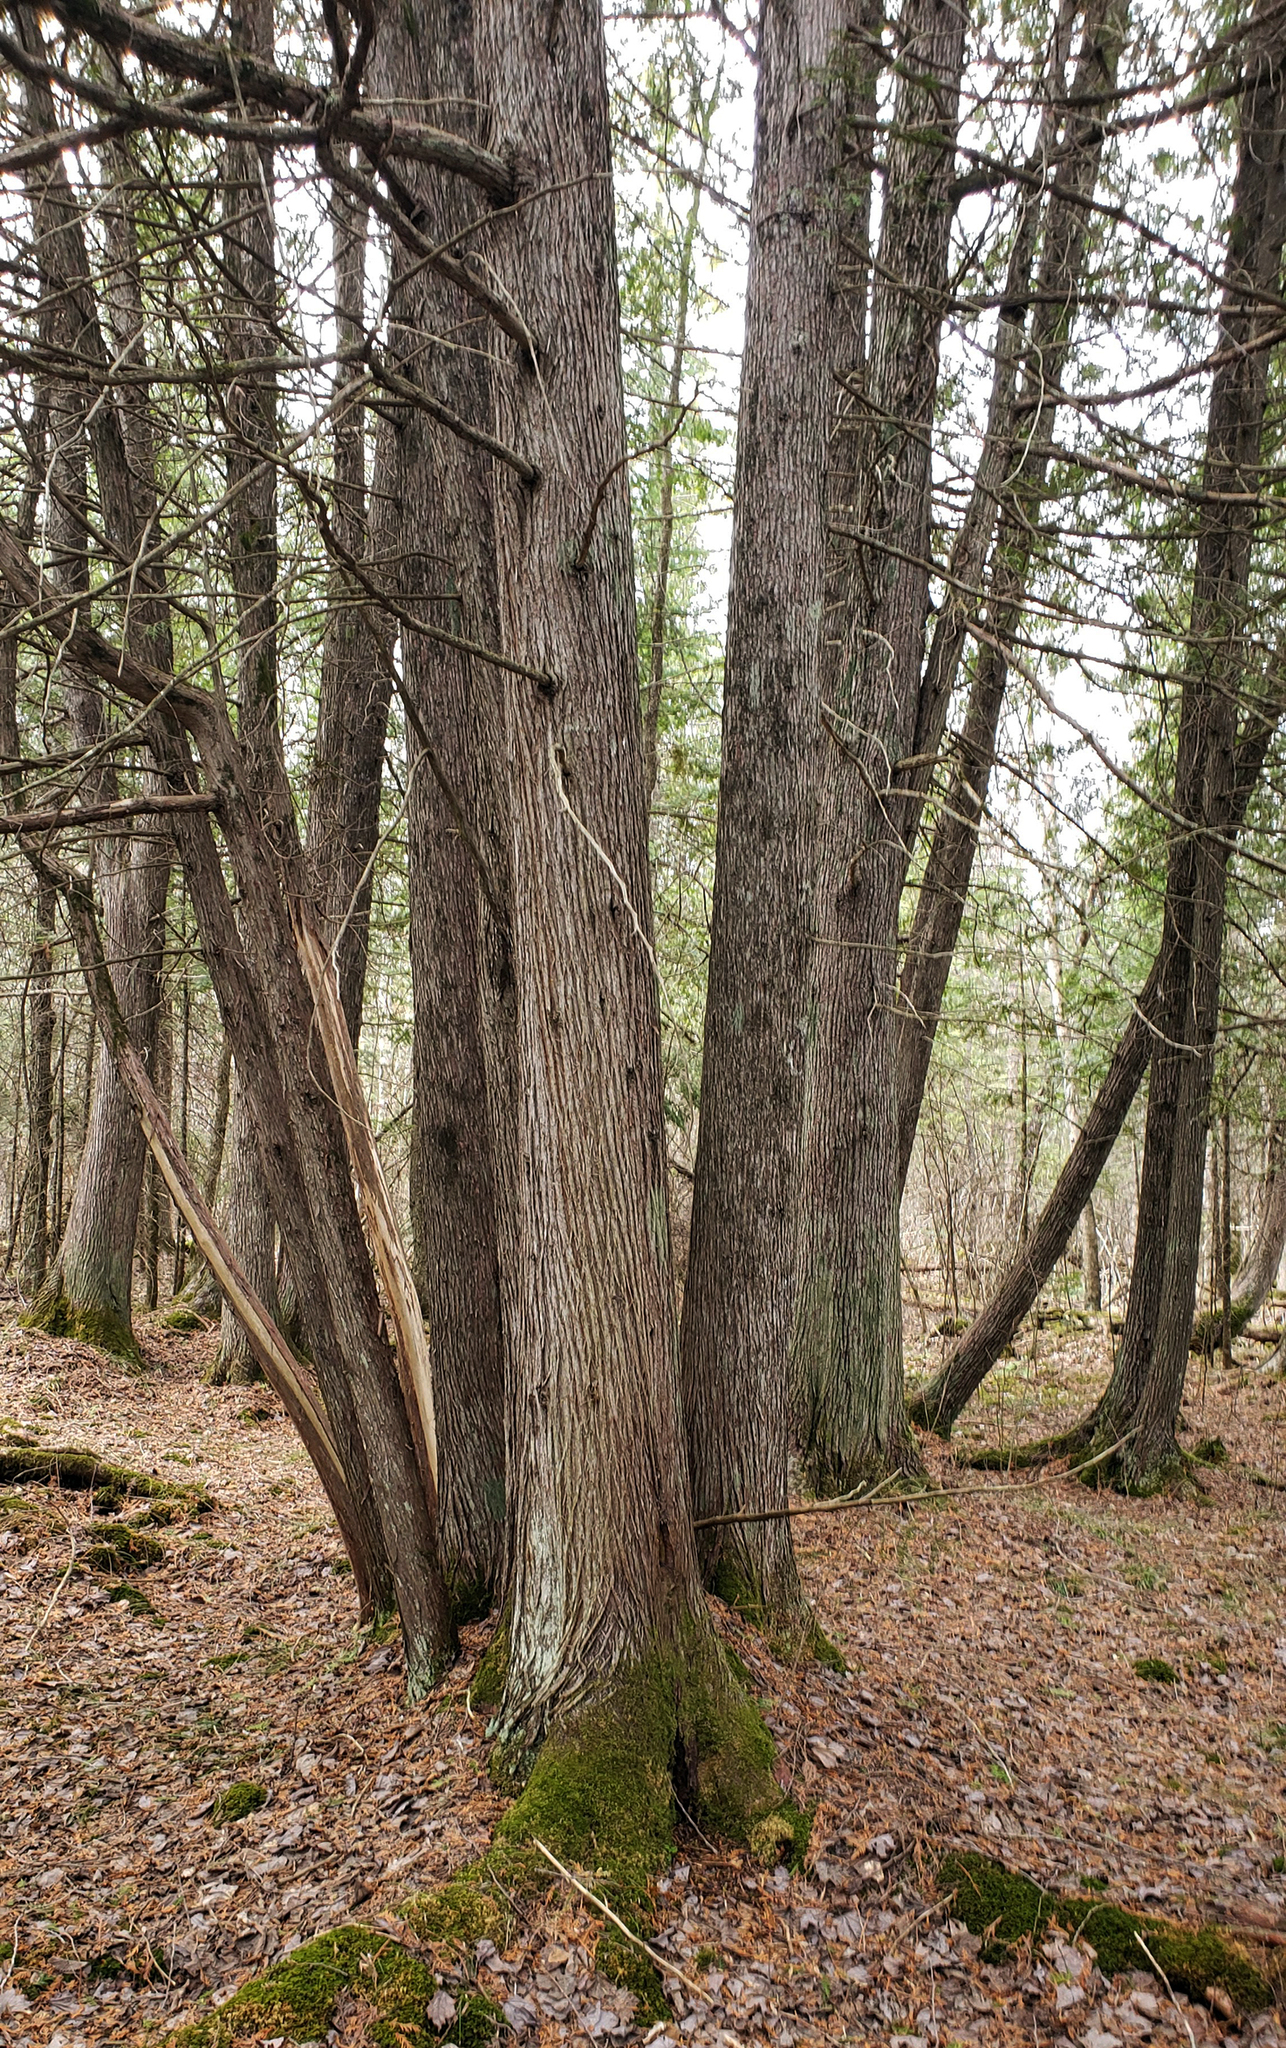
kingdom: Plantae
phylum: Tracheophyta
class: Pinopsida
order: Pinales
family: Cupressaceae
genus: Thuja
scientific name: Thuja occidentalis
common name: Northern white-cedar
